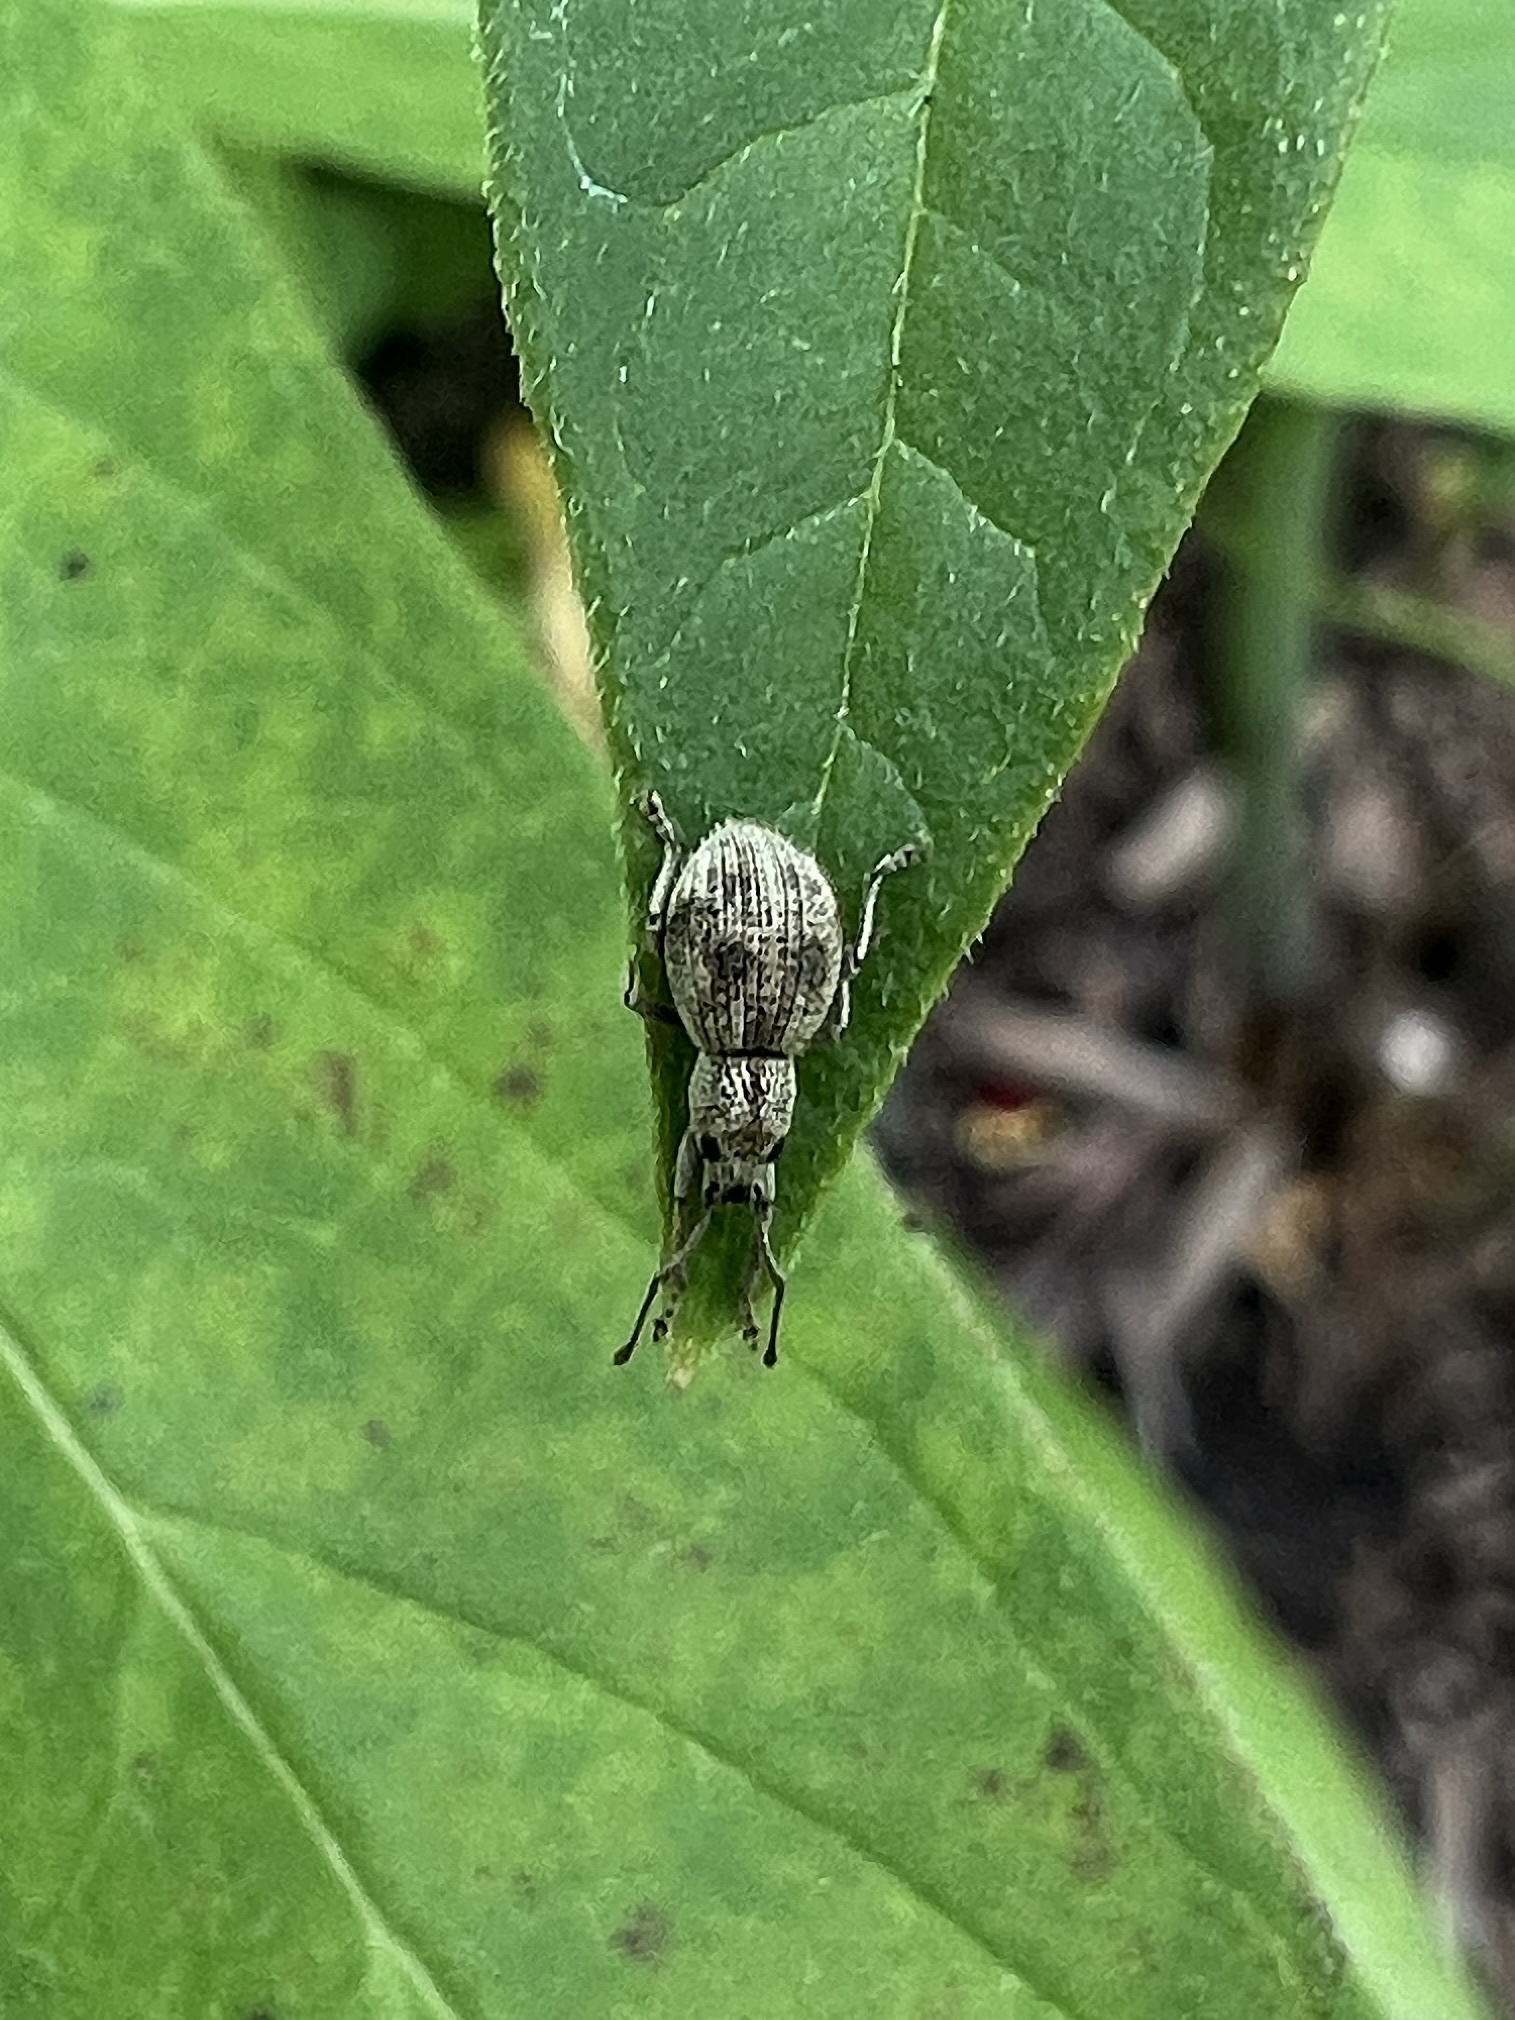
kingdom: Animalia
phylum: Arthropoda
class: Insecta
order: Coleoptera
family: Curculionidae
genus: Calomycterus
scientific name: Calomycterus setarius
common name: Weevil
